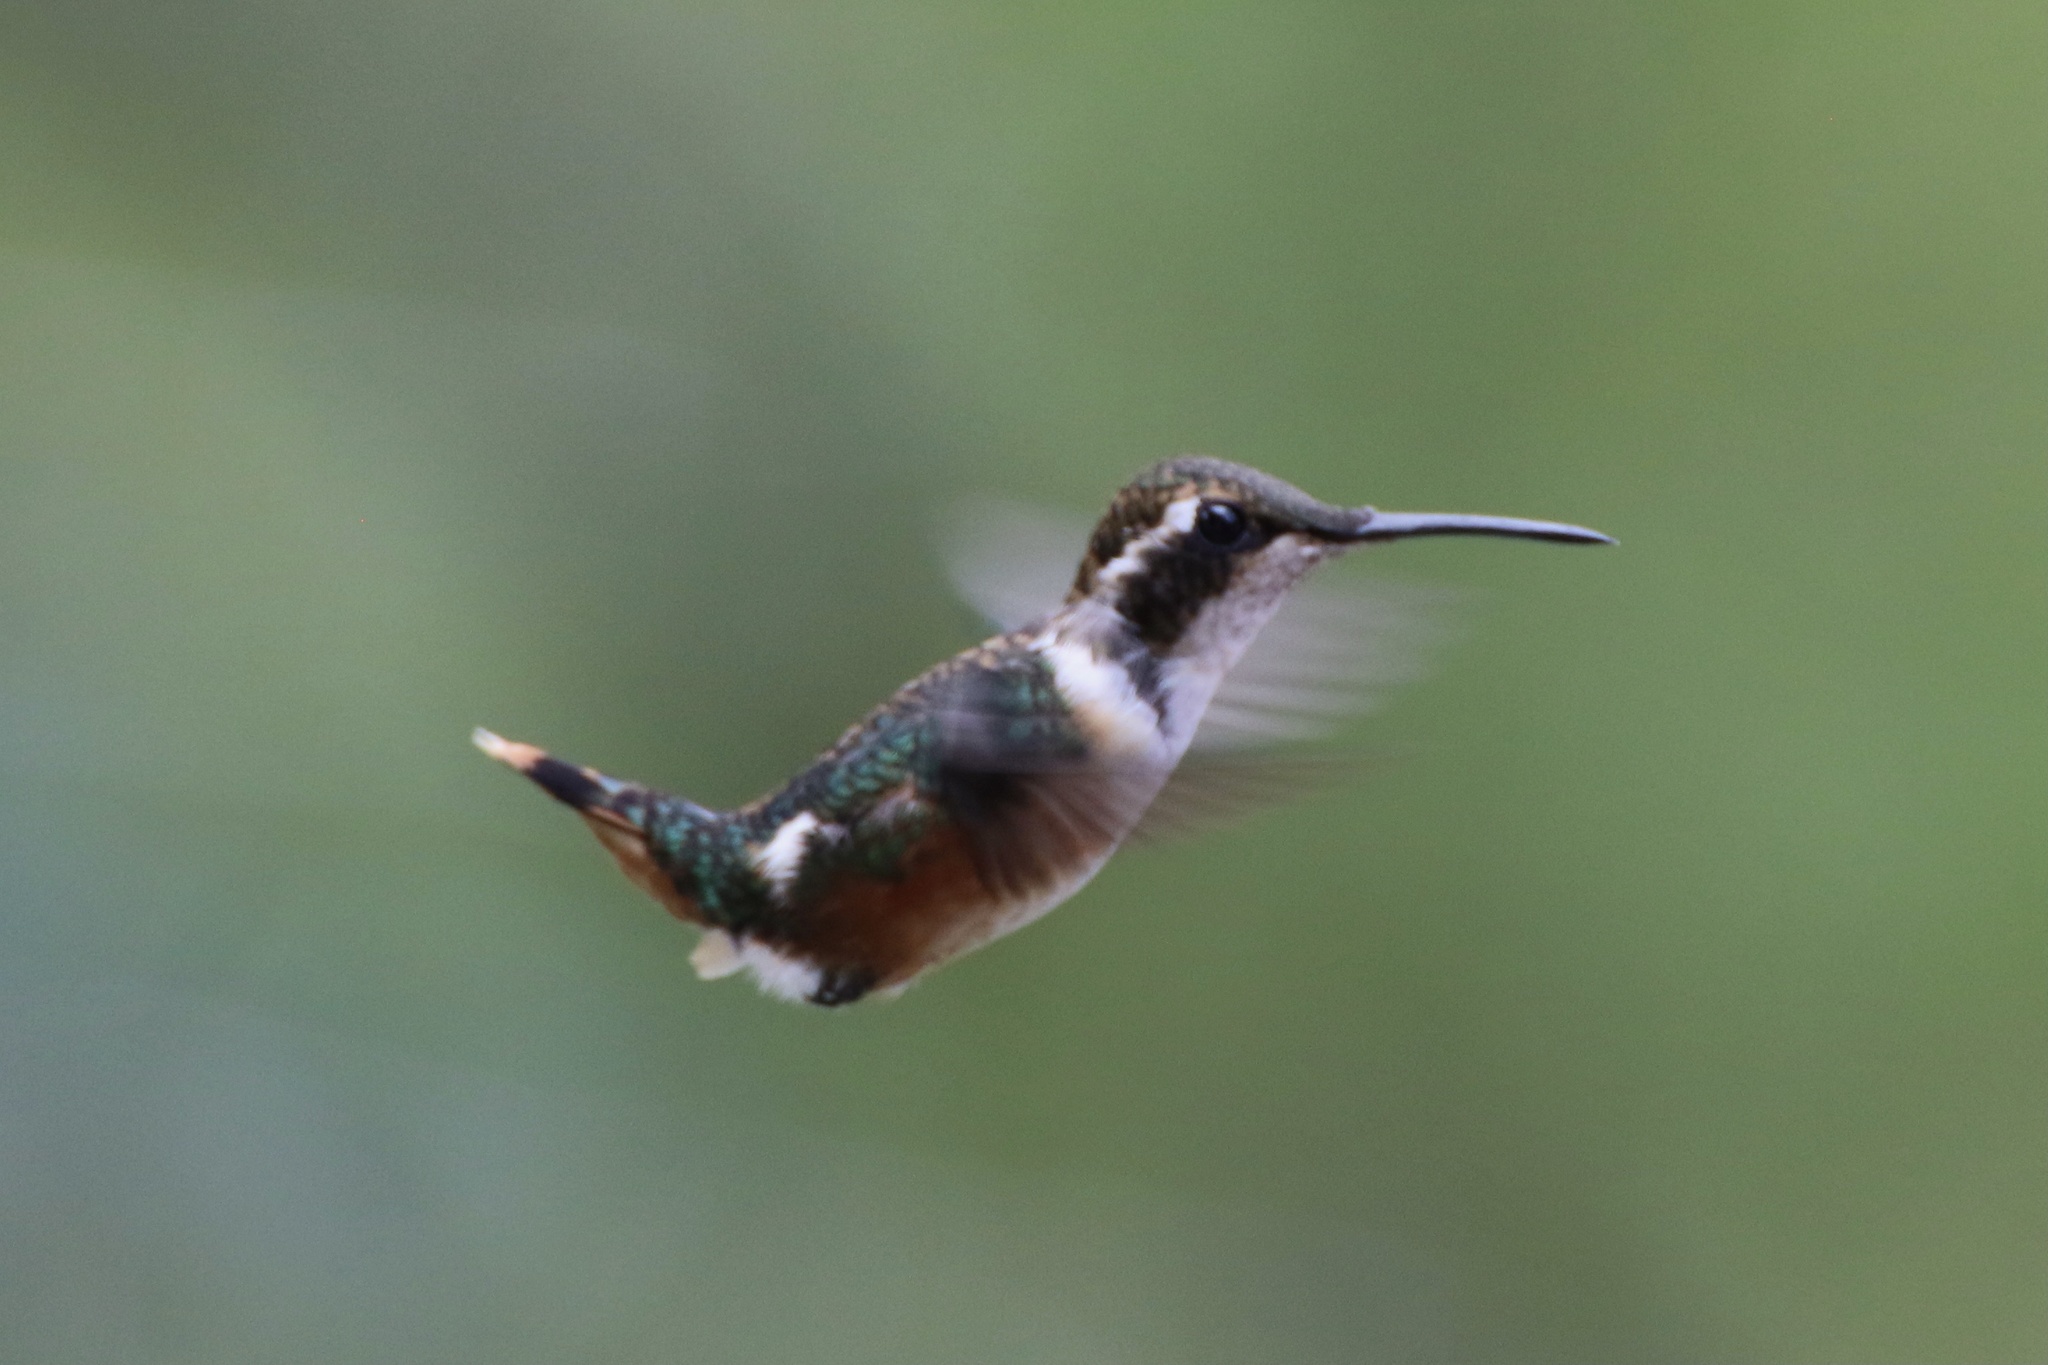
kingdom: Animalia
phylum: Chordata
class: Aves
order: Apodiformes
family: Trochilidae
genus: Chaetocercus
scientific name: Chaetocercus mulsant
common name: White-bellied woodstar
